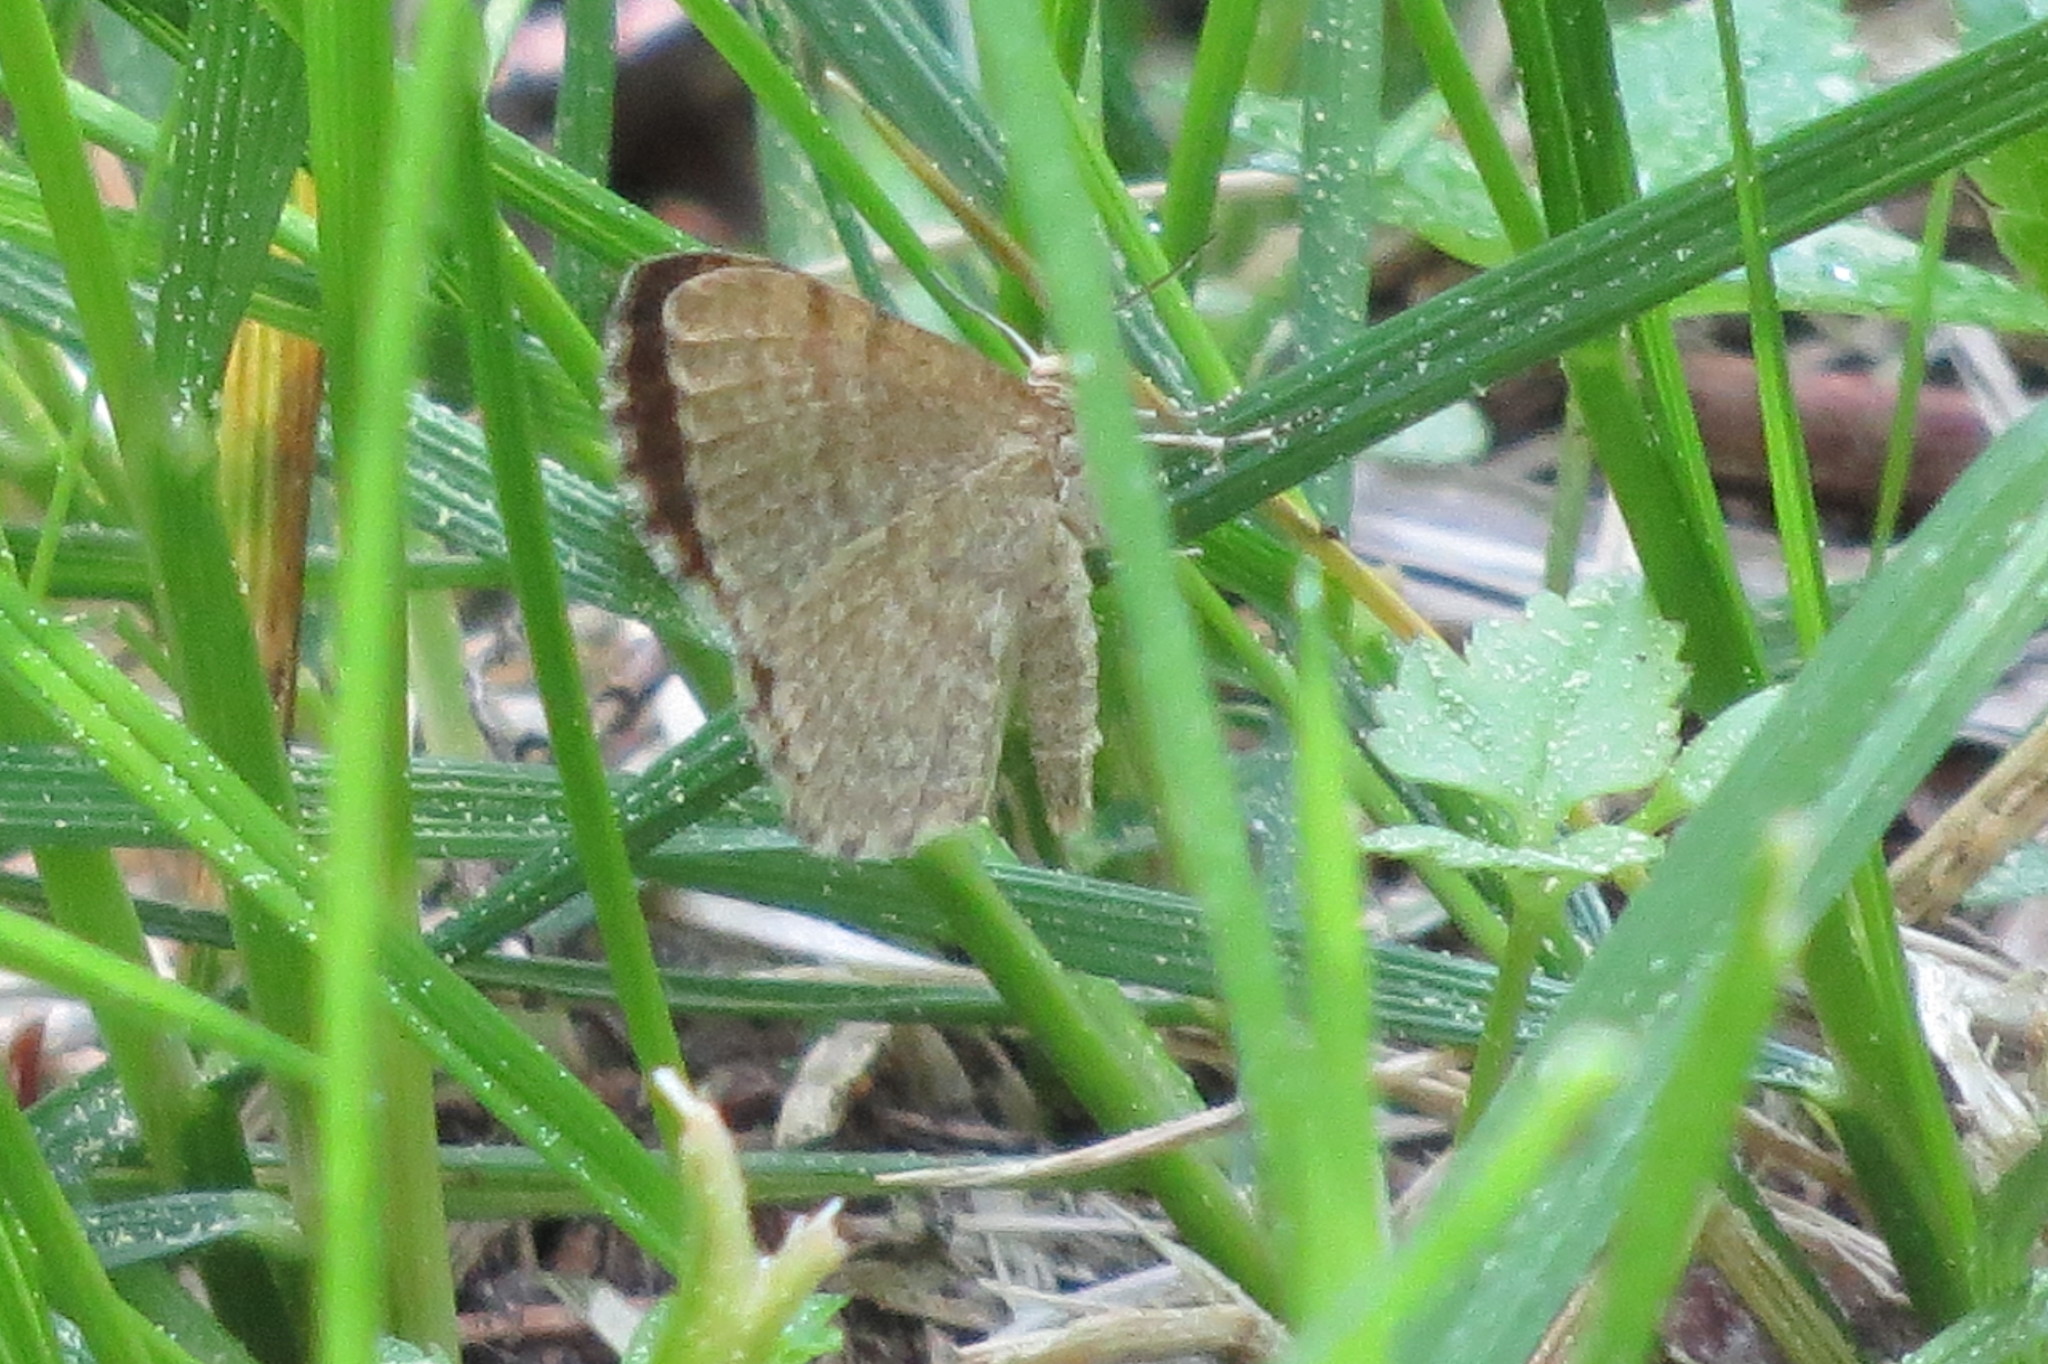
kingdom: Animalia
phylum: Arthropoda
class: Insecta
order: Lepidoptera
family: Geometridae
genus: Euchoeca
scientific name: Euchoeca nebulata
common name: Dingy shell
